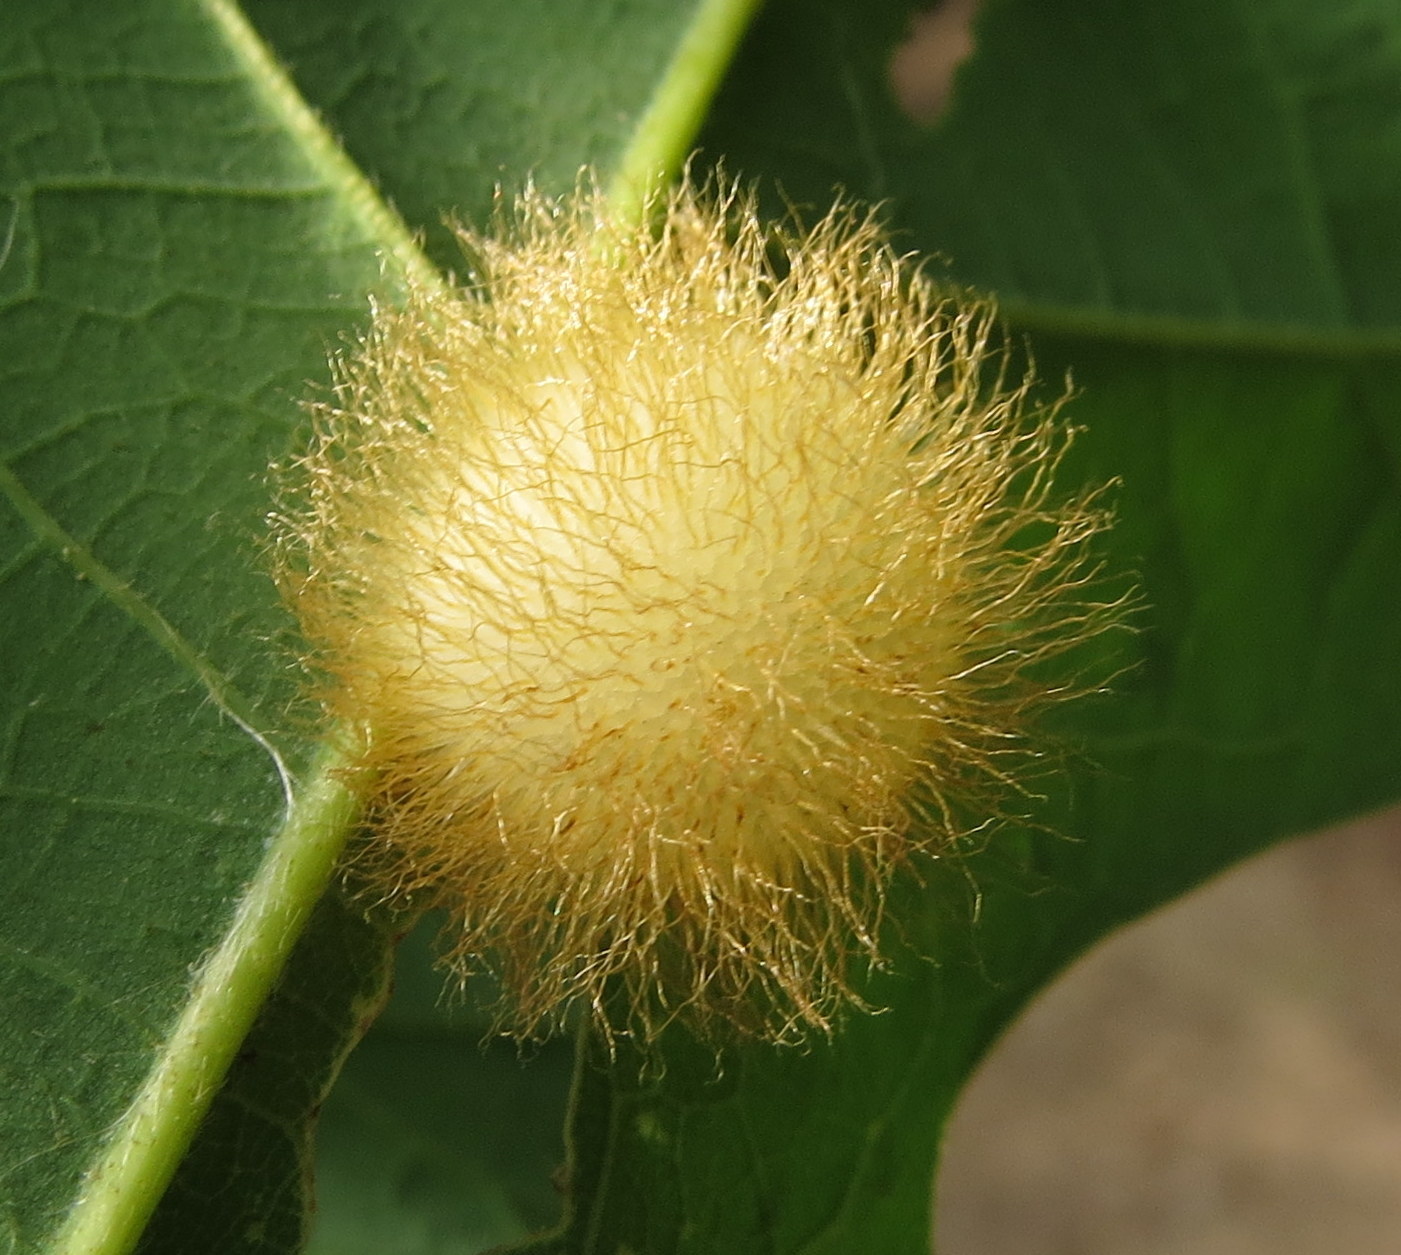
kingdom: Animalia
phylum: Arthropoda
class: Insecta
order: Hymenoptera
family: Cynipidae
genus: Acraspis
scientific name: Acraspis villosa
